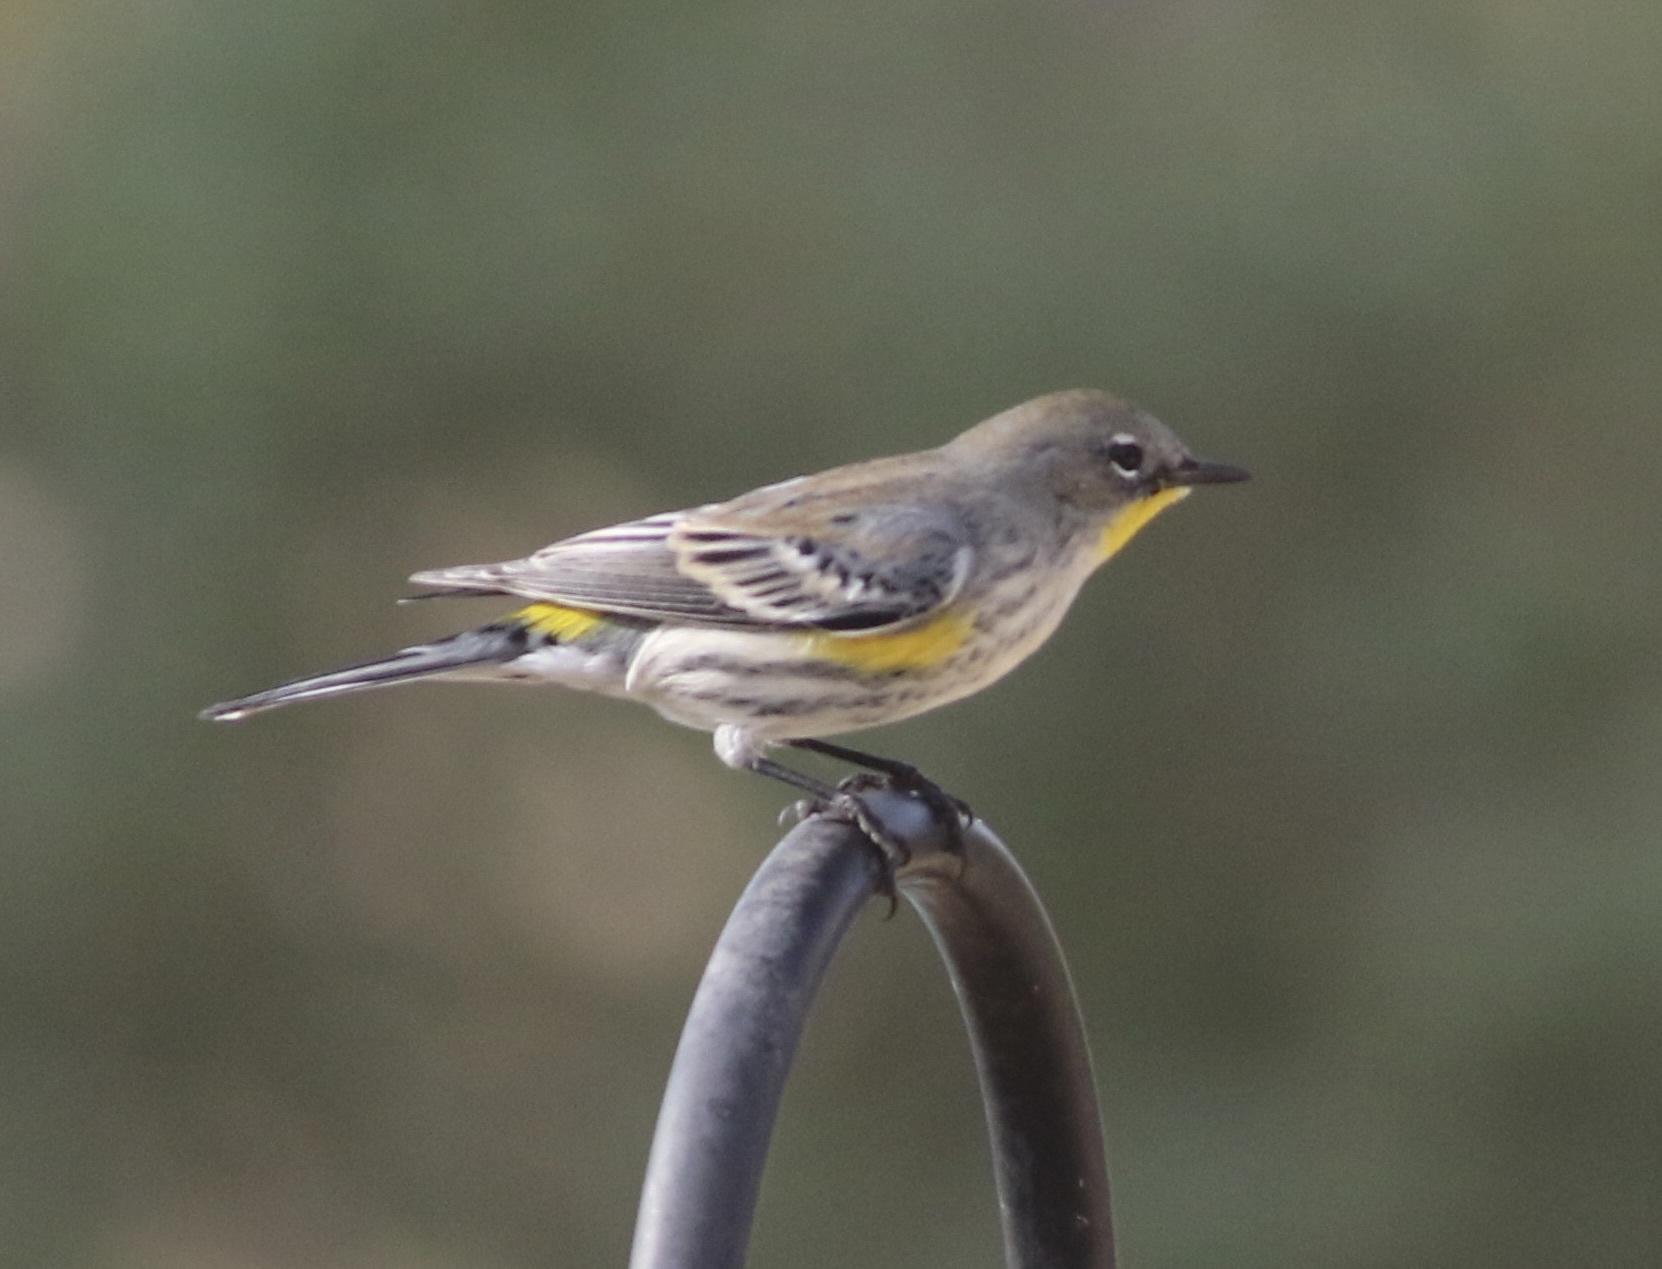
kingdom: Animalia
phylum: Chordata
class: Aves
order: Passeriformes
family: Parulidae
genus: Setophaga
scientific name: Setophaga coronata
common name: Myrtle warbler
